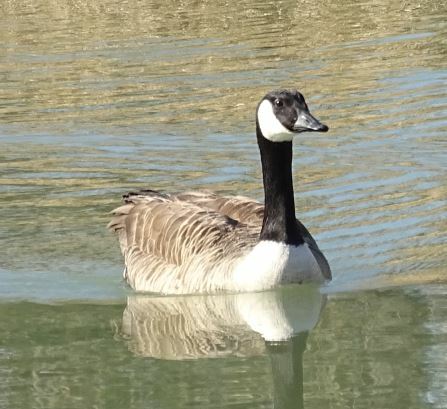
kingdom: Animalia
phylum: Chordata
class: Aves
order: Anseriformes
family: Anatidae
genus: Branta
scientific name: Branta canadensis
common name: Canada goose
